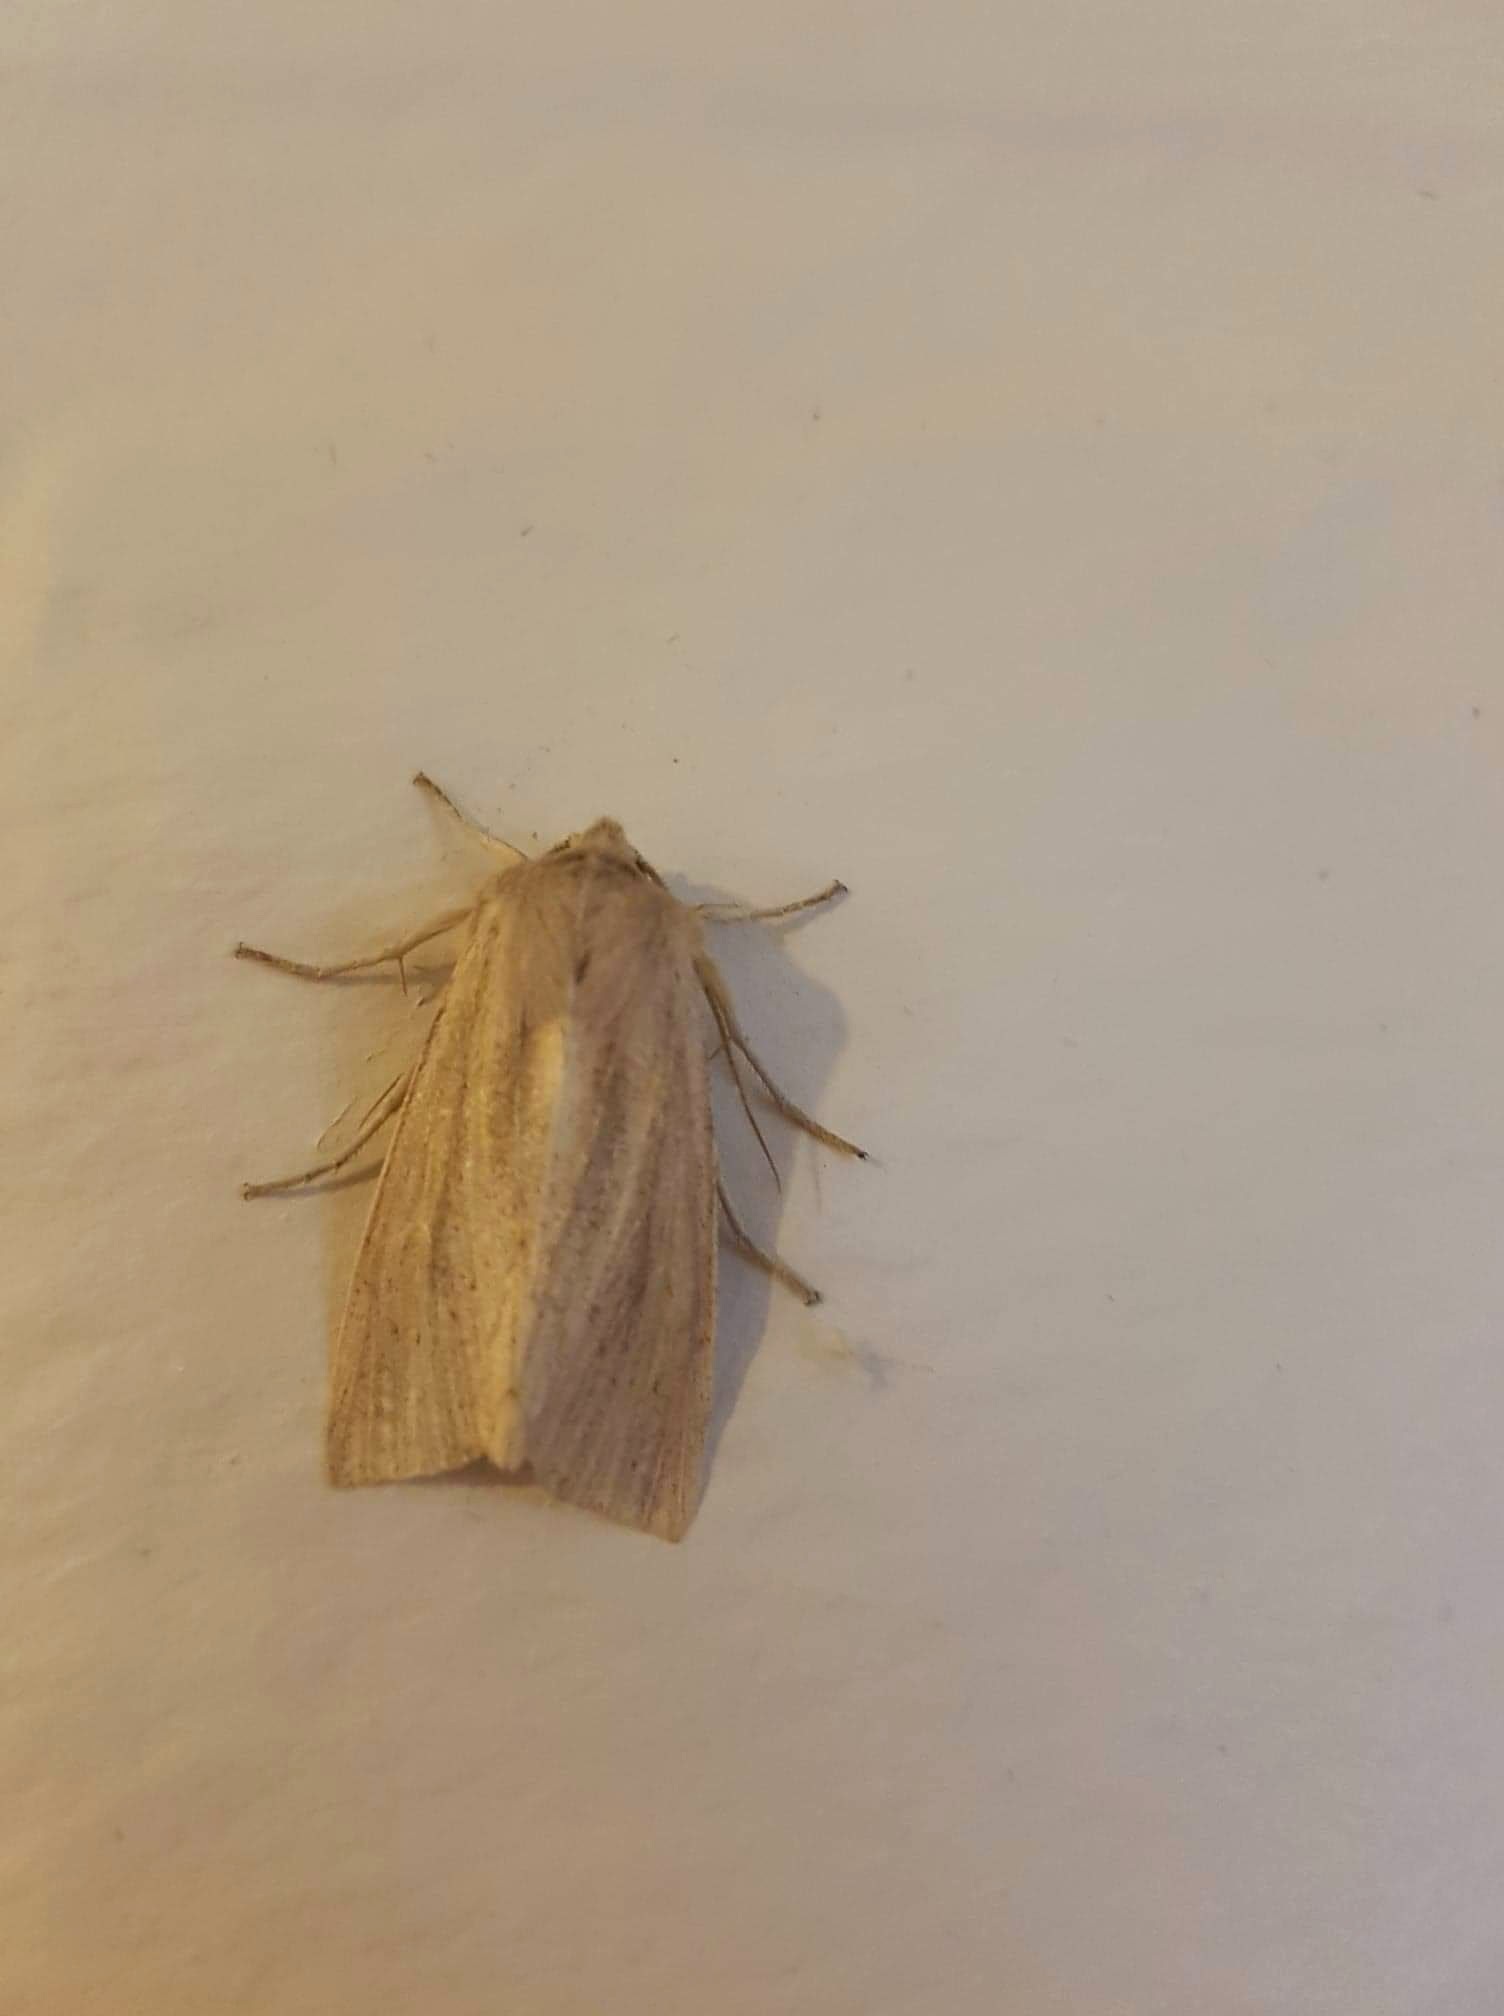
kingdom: Animalia
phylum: Arthropoda
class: Insecta
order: Lepidoptera
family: Noctuidae
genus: Rhizedra
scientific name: Rhizedra lutosa
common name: Large wainscot
